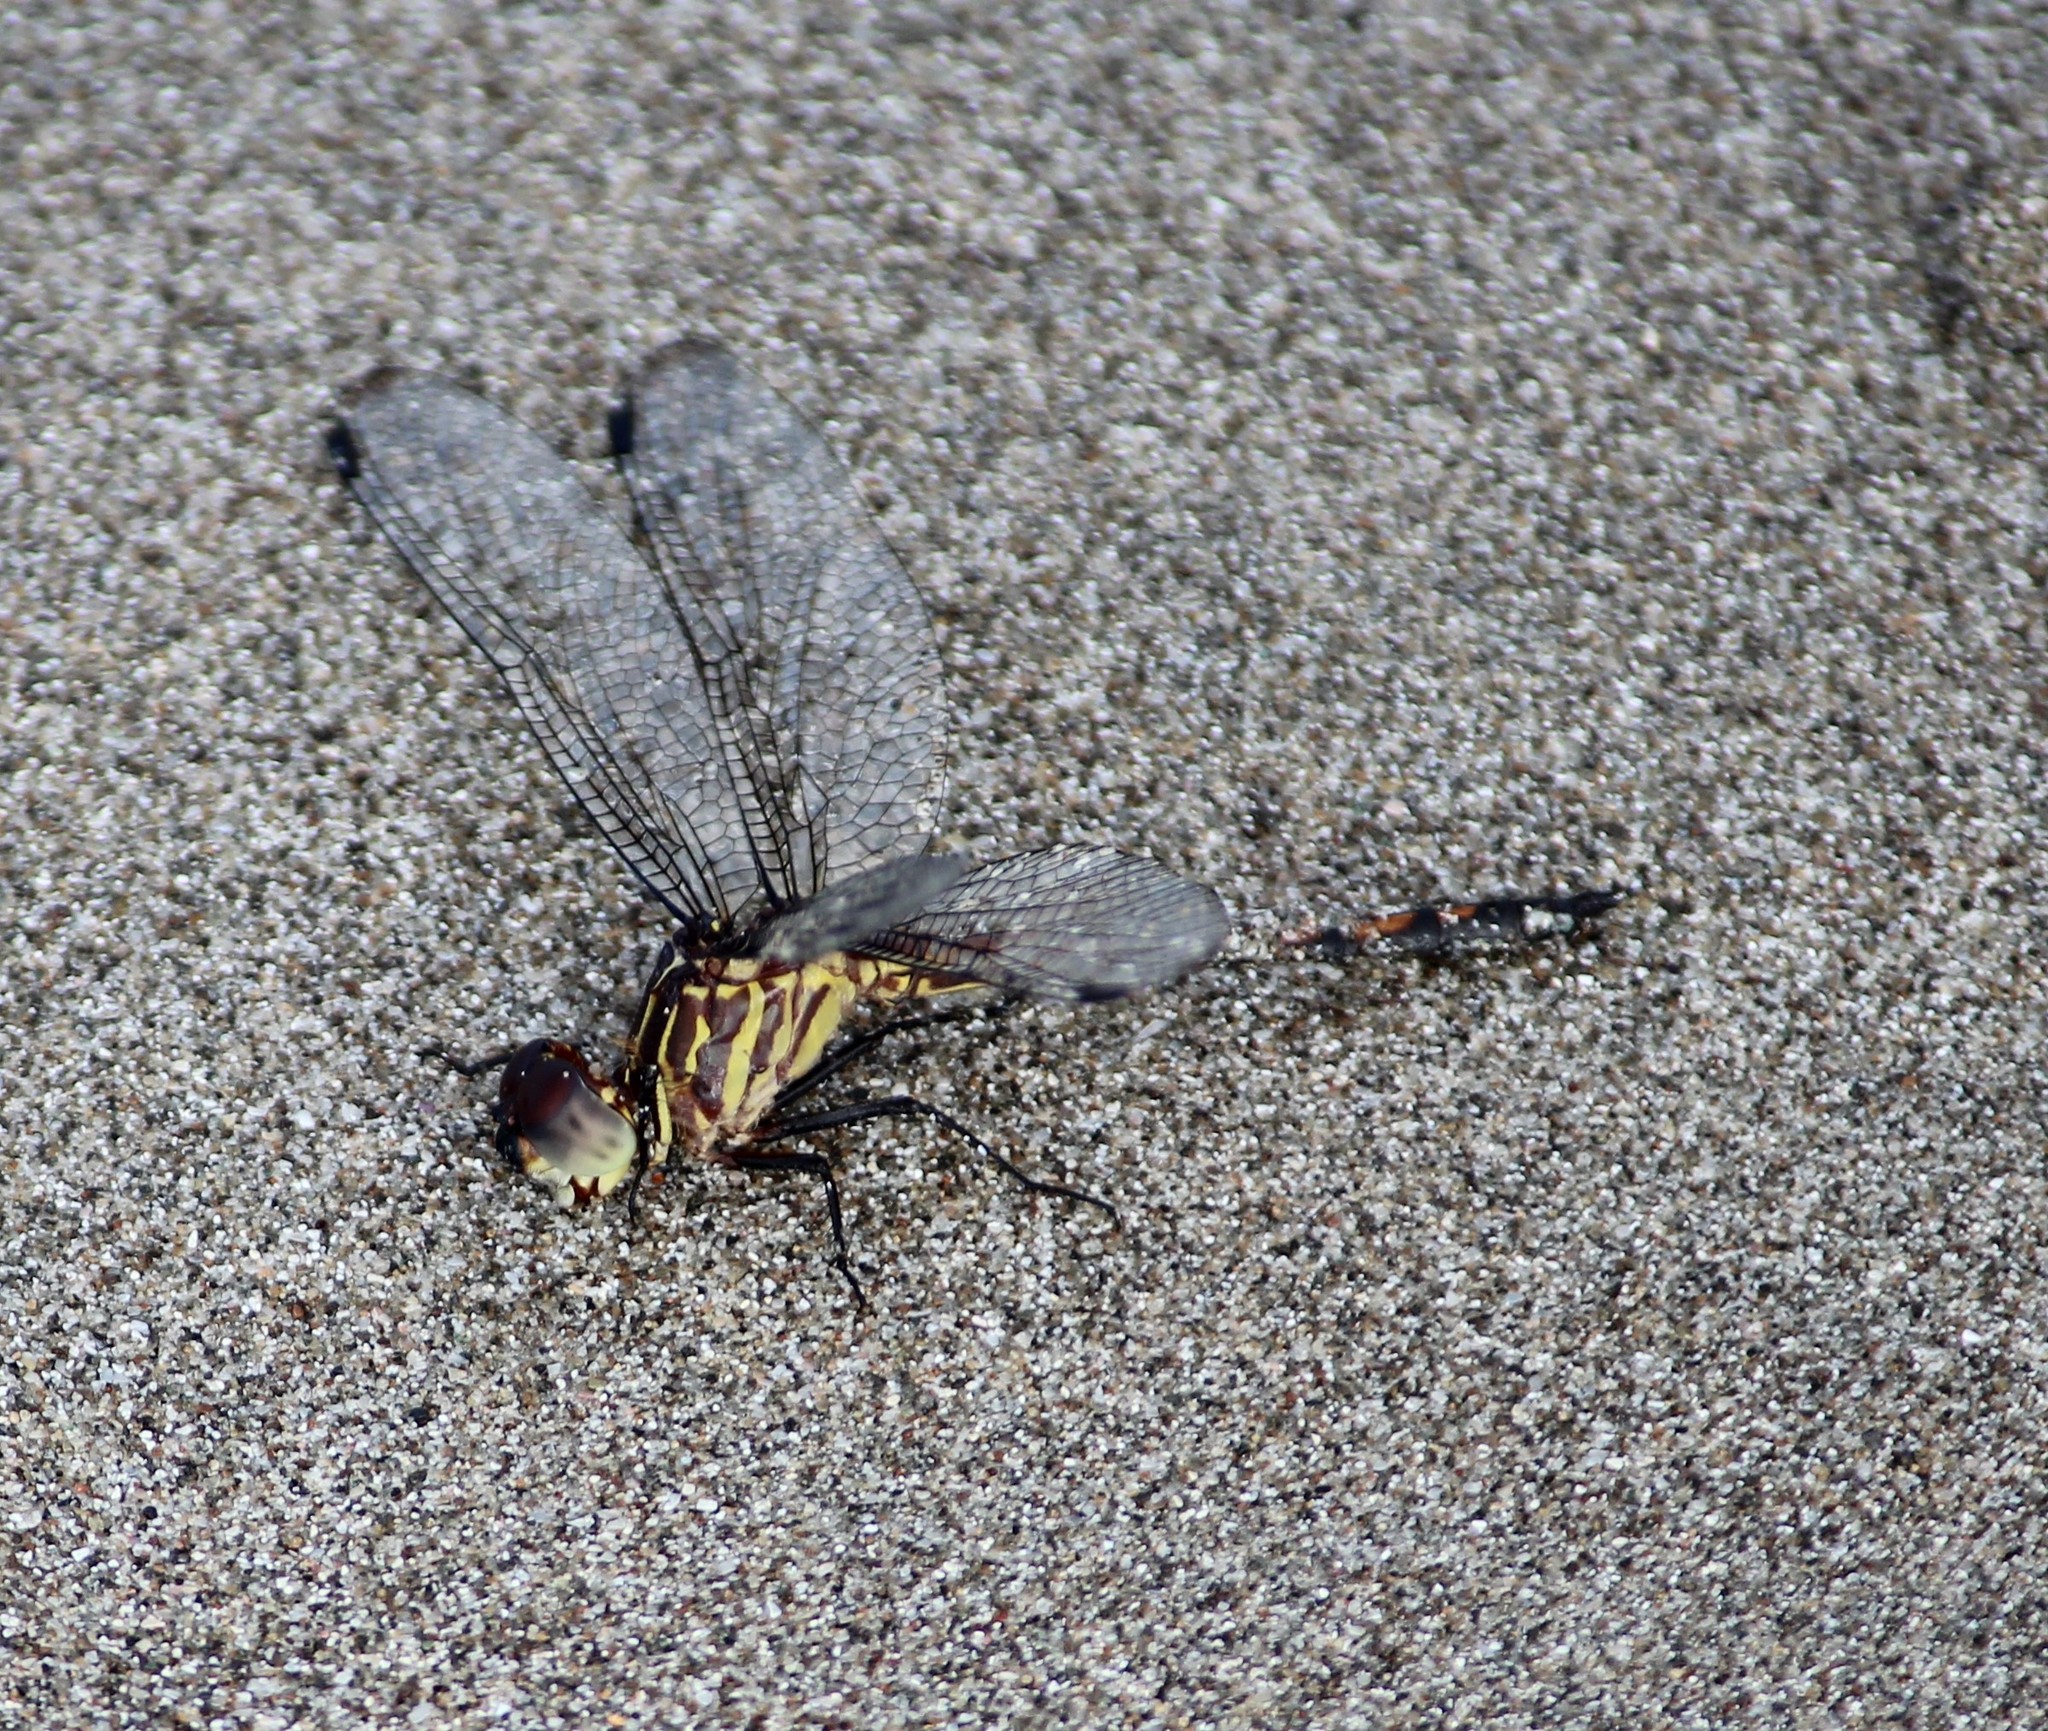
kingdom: Animalia
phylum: Arthropoda
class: Insecta
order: Odonata
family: Libellulidae
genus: Dythemis
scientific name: Dythemis sterilis
